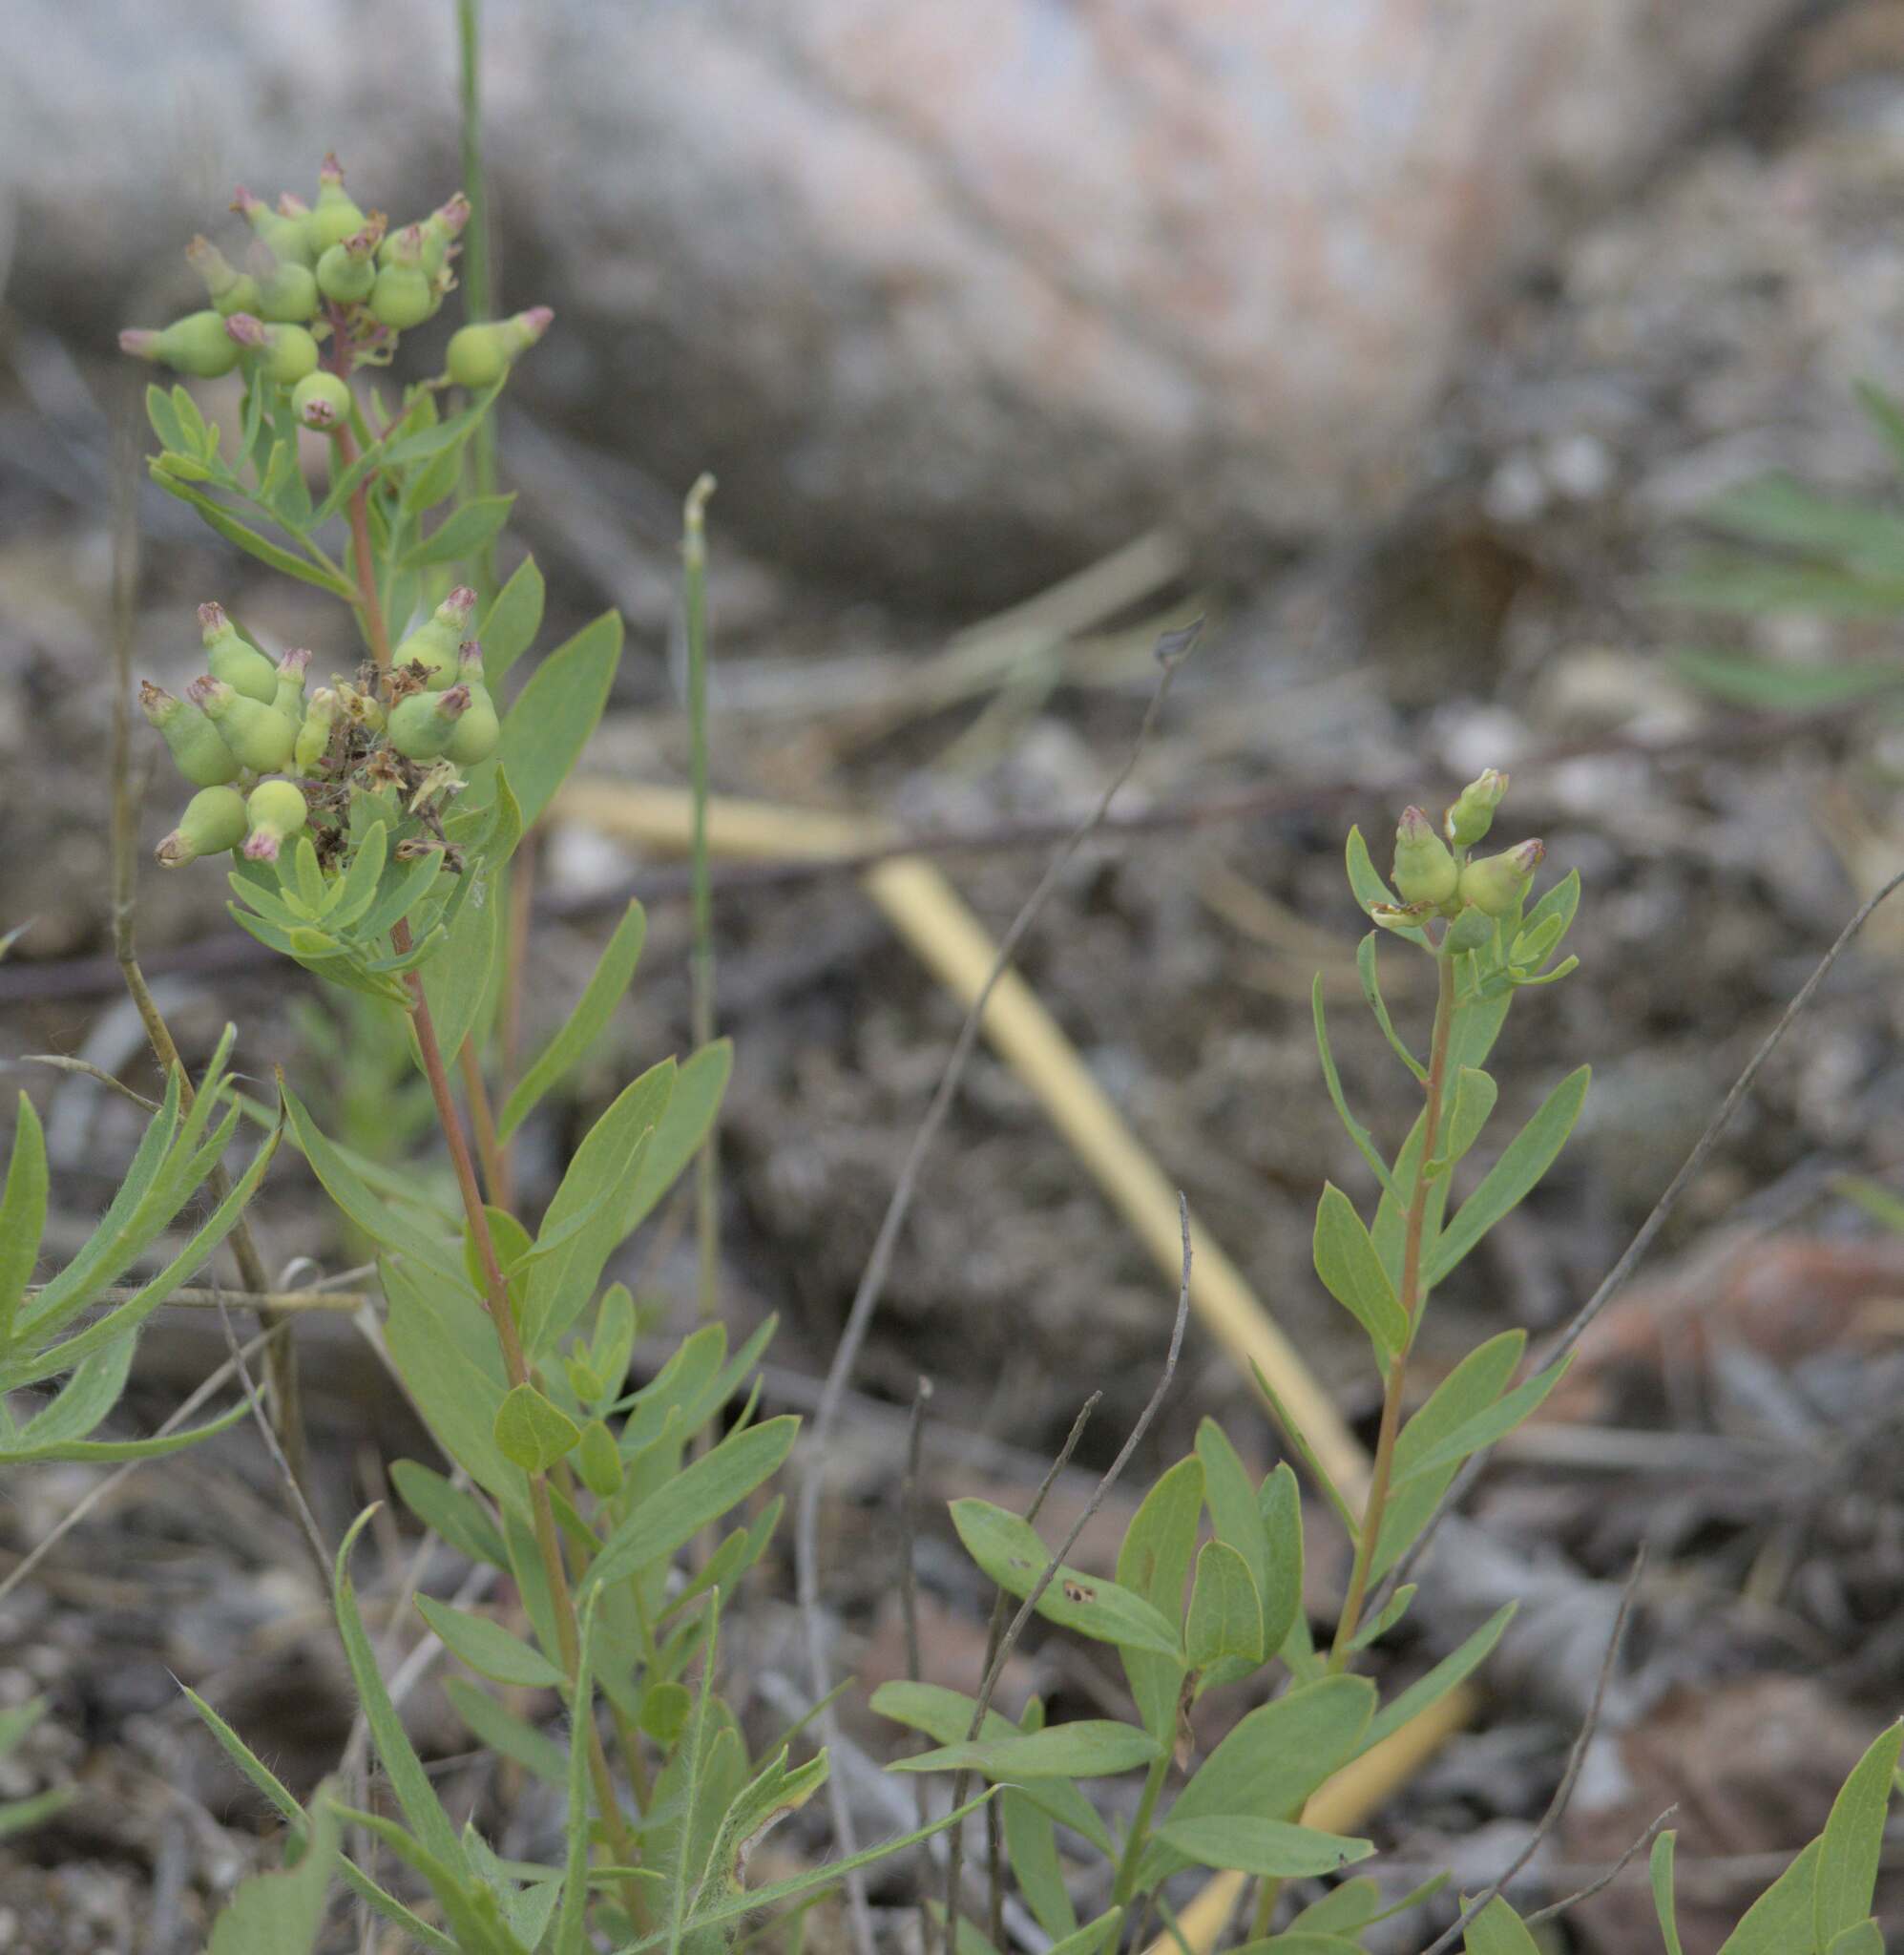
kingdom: Plantae
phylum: Tracheophyta
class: Magnoliopsida
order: Santalales
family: Comandraceae
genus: Comandra
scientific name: Comandra umbellata
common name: Bastard toadflax
